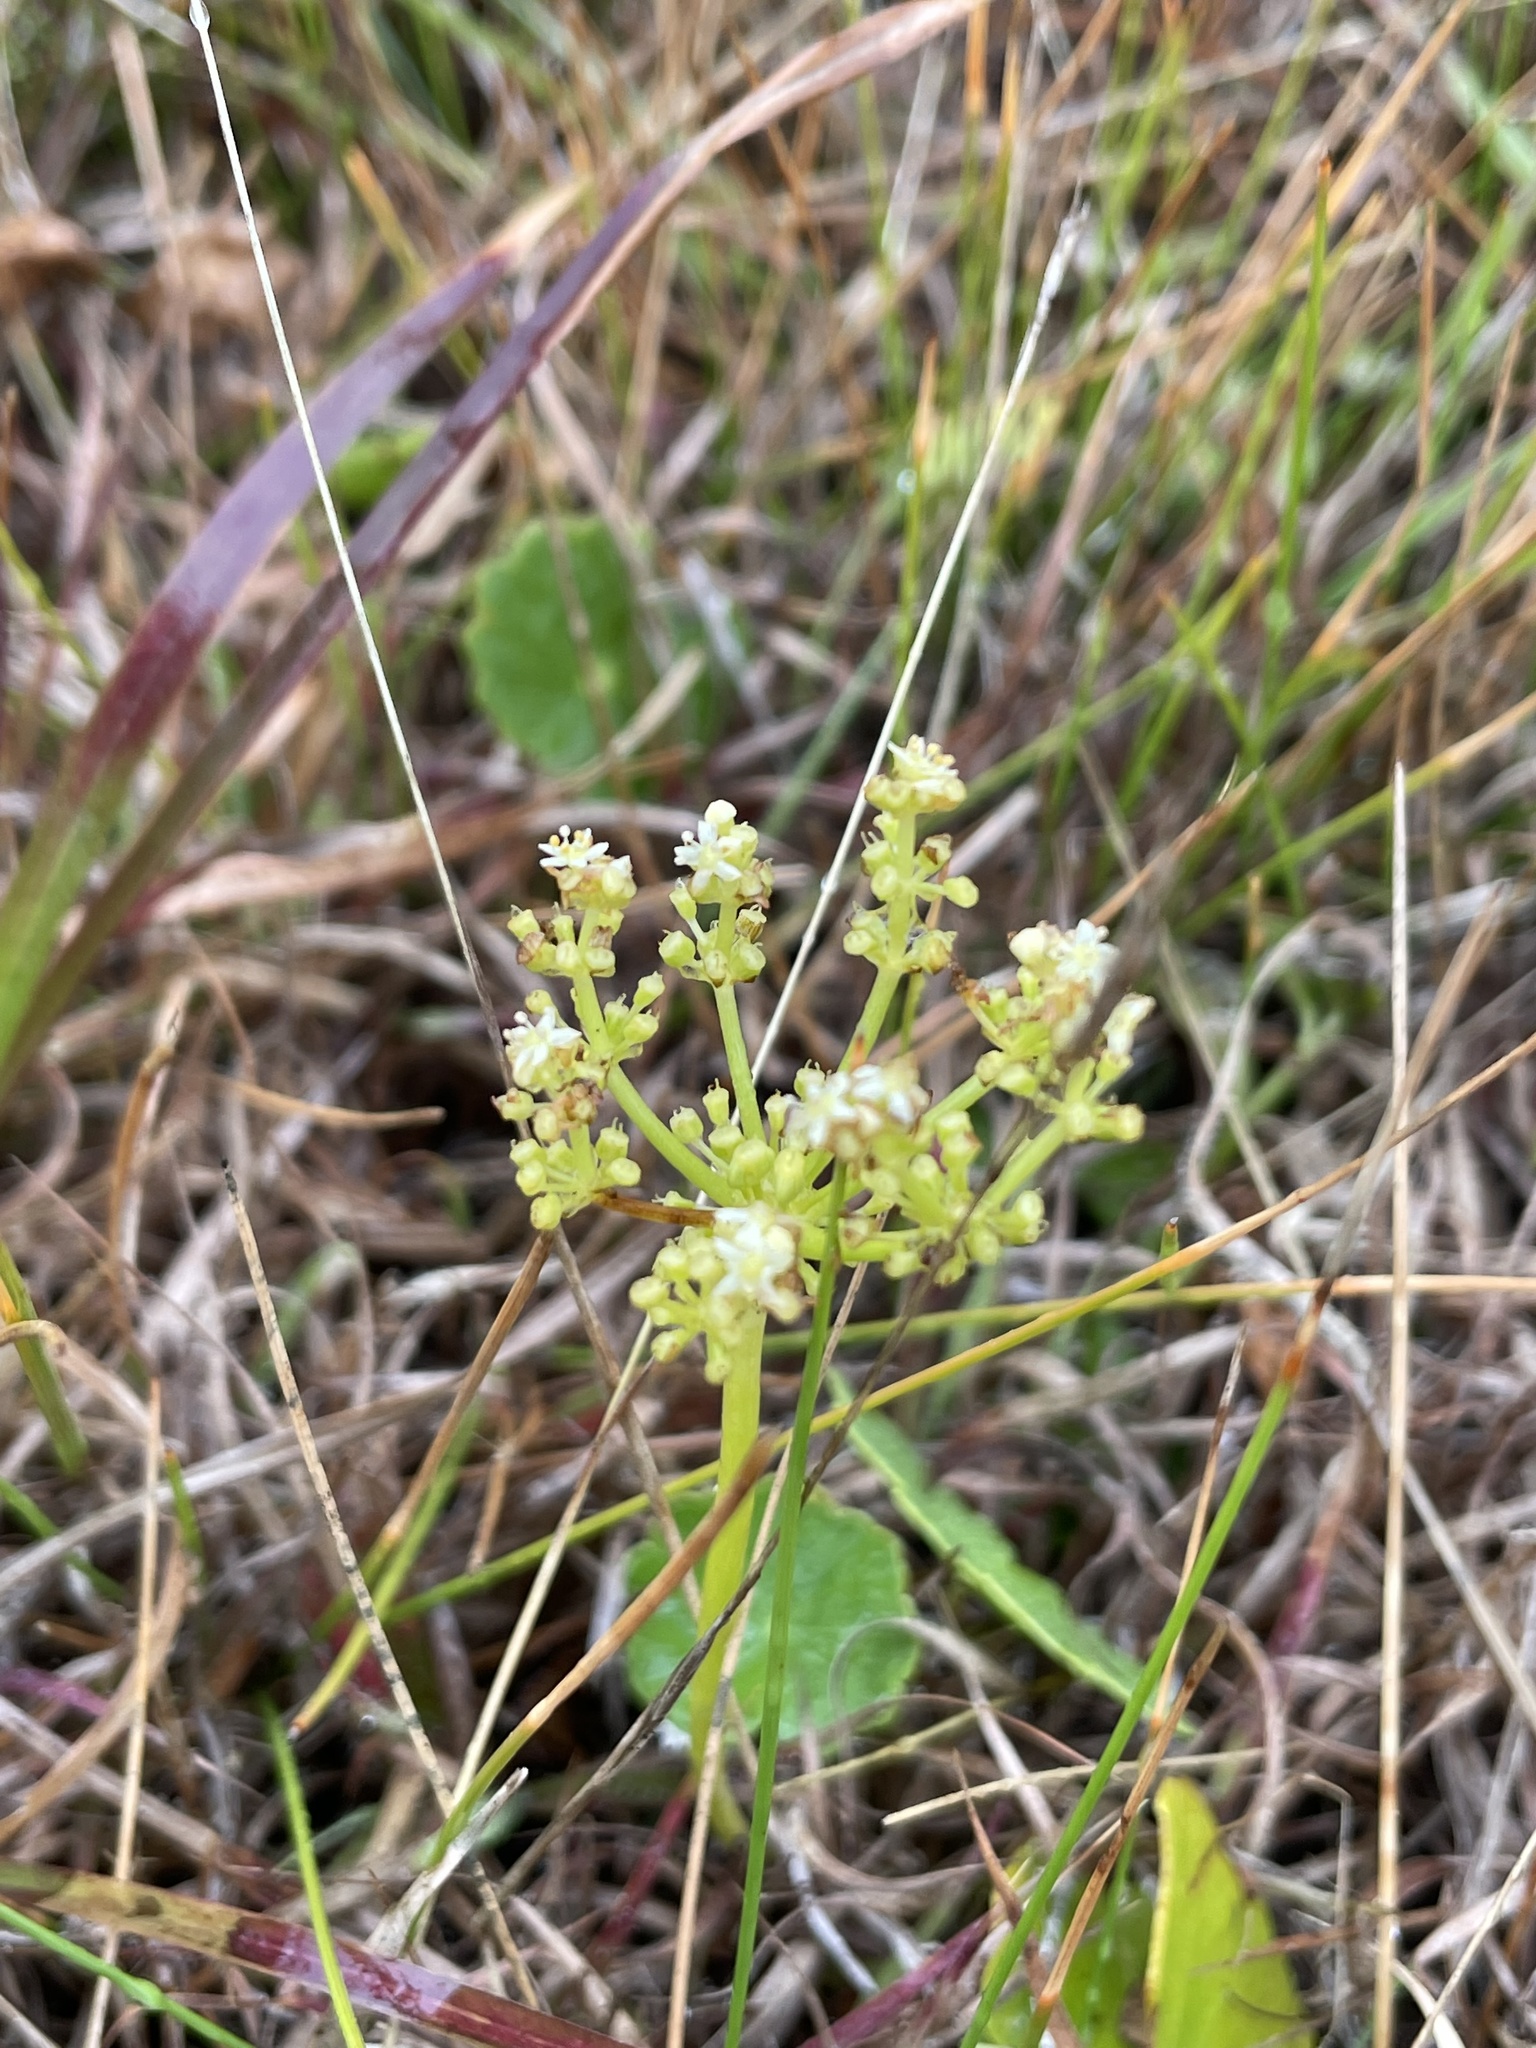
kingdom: Plantae
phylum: Tracheophyta
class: Magnoliopsida
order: Apiales
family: Araliaceae
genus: Hydrocotyle
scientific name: Hydrocotyle bonariensis
